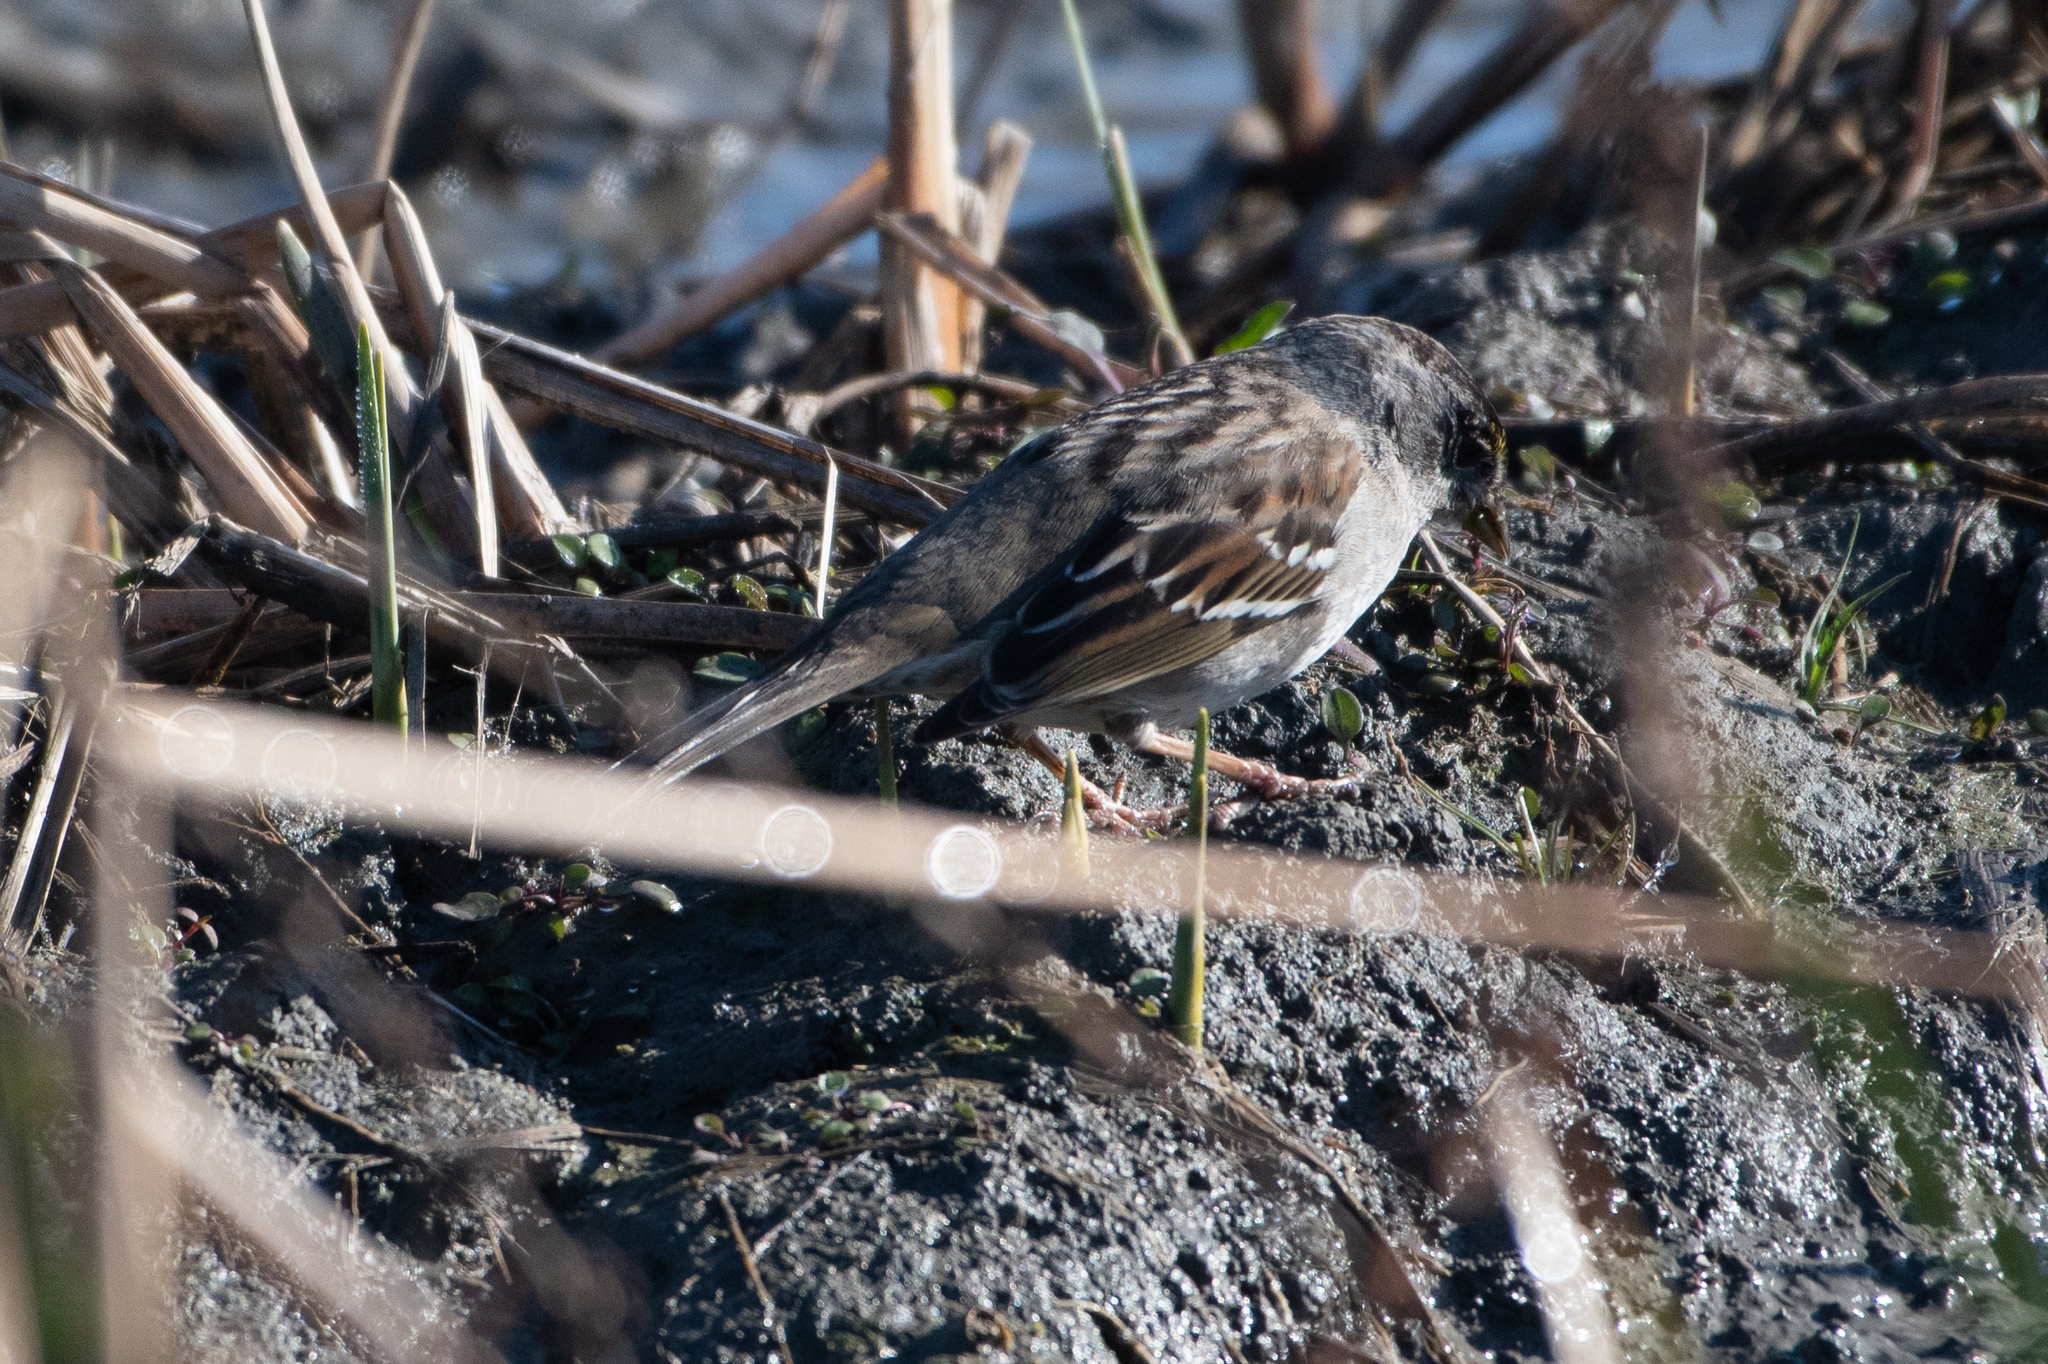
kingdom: Animalia
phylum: Chordata
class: Aves
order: Passeriformes
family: Passerellidae
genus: Zonotrichia
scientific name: Zonotrichia atricapilla
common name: Golden-crowned sparrow
